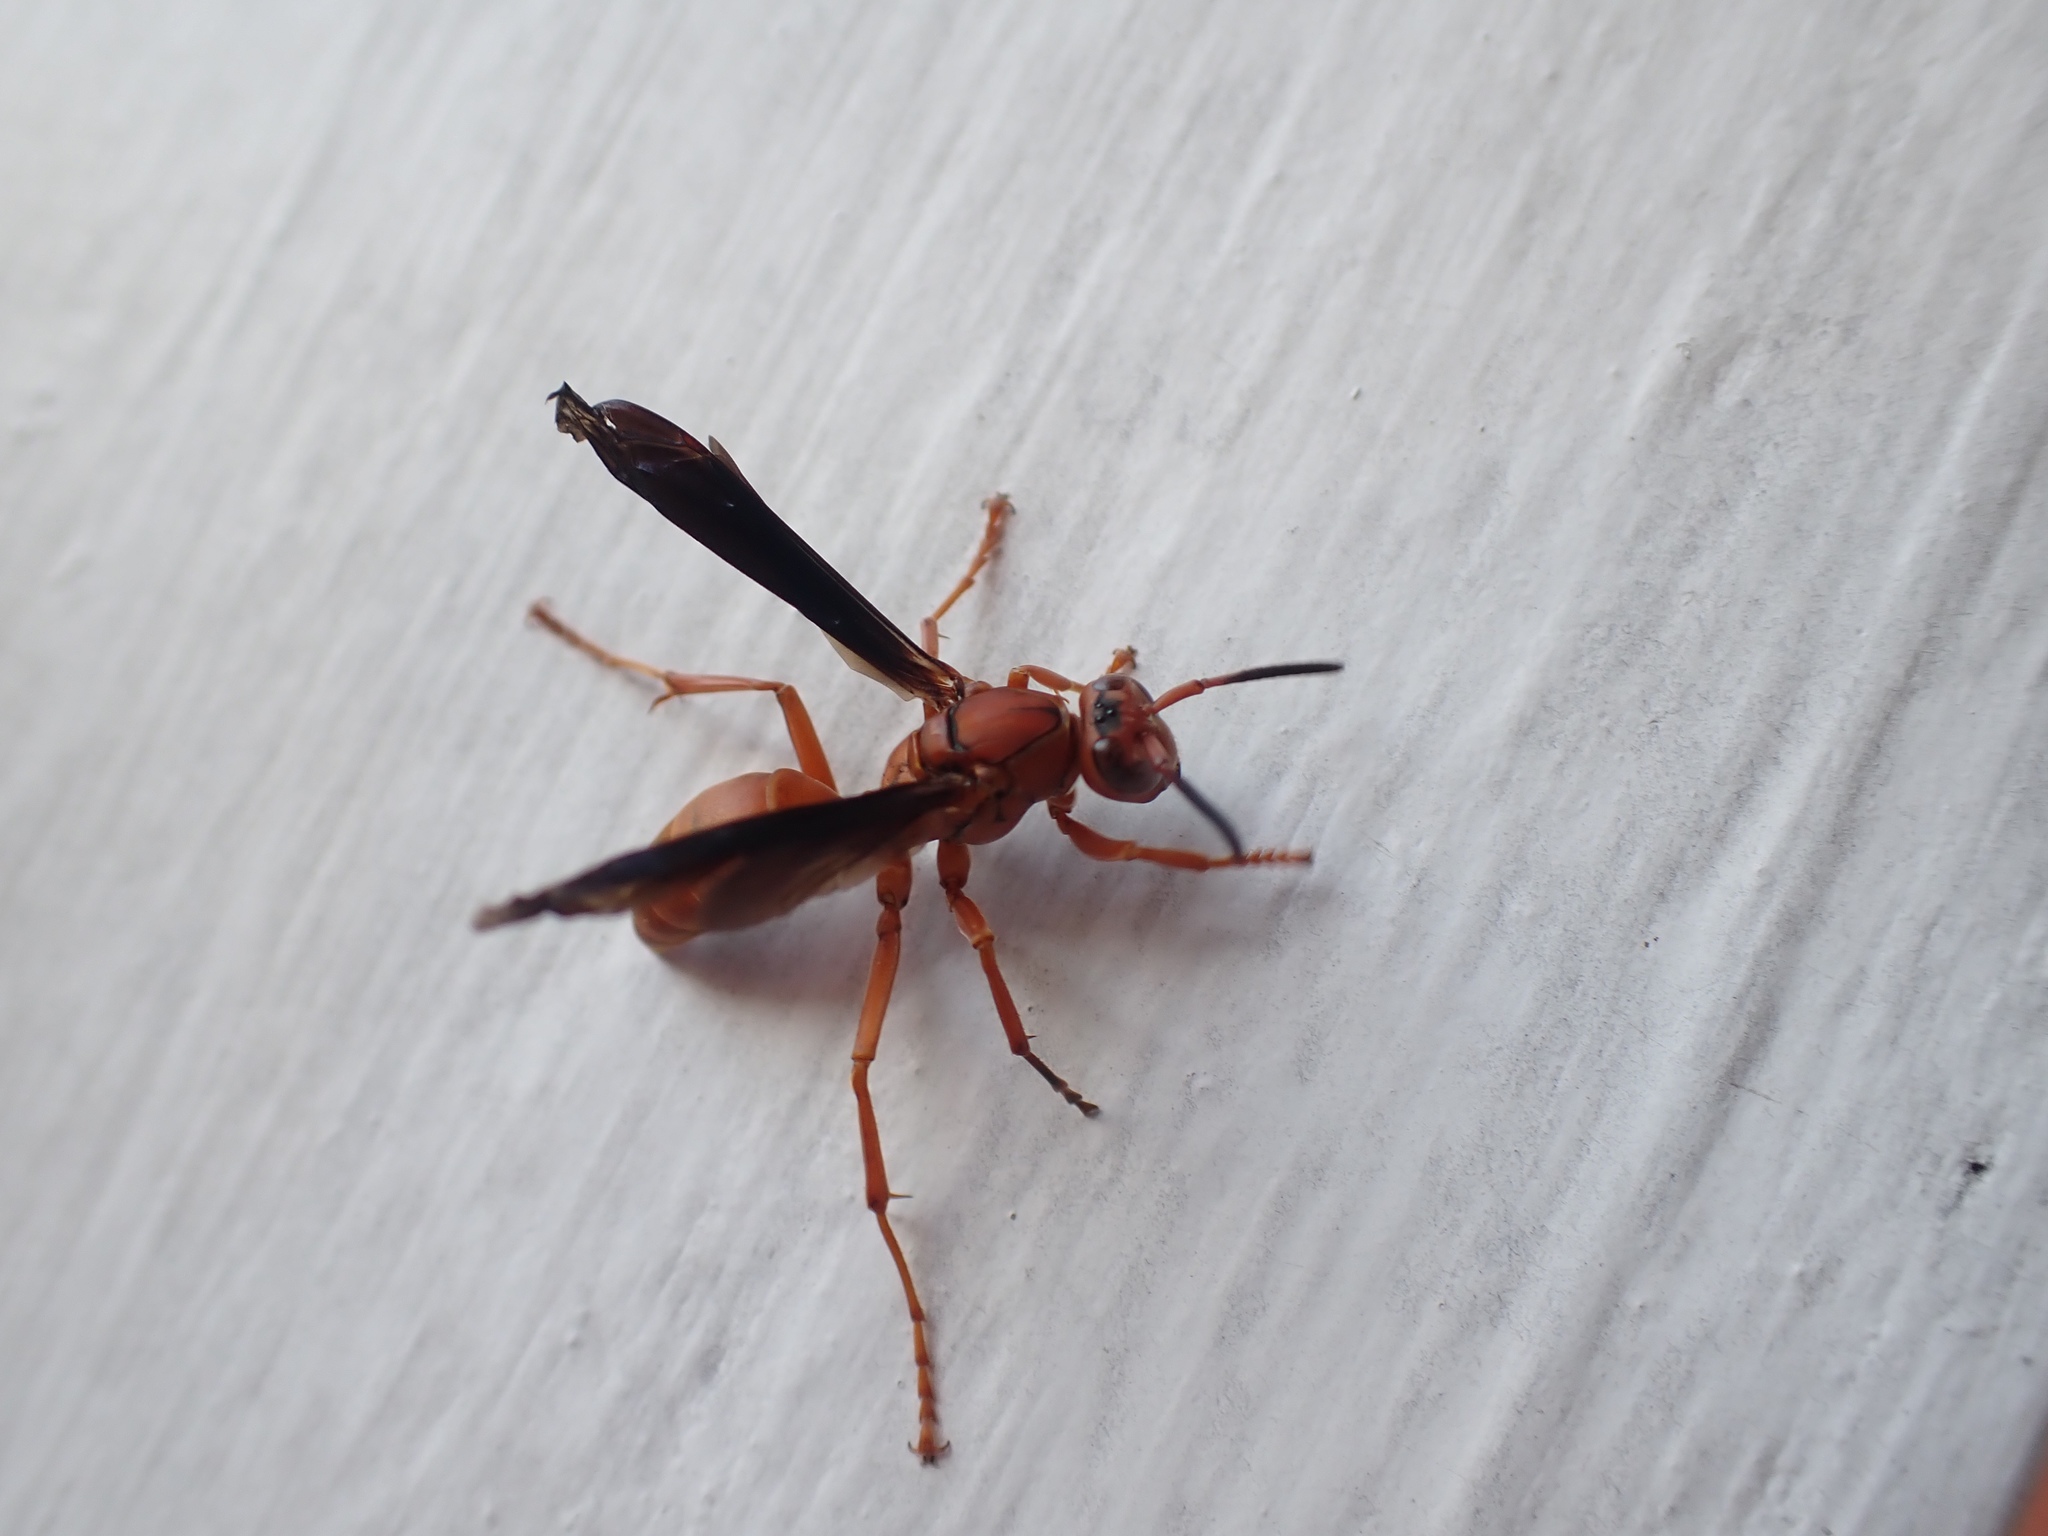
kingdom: Animalia
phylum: Arthropoda
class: Insecta
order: Hymenoptera
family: Vespidae
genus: Fuscopolistes
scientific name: Fuscopolistes
